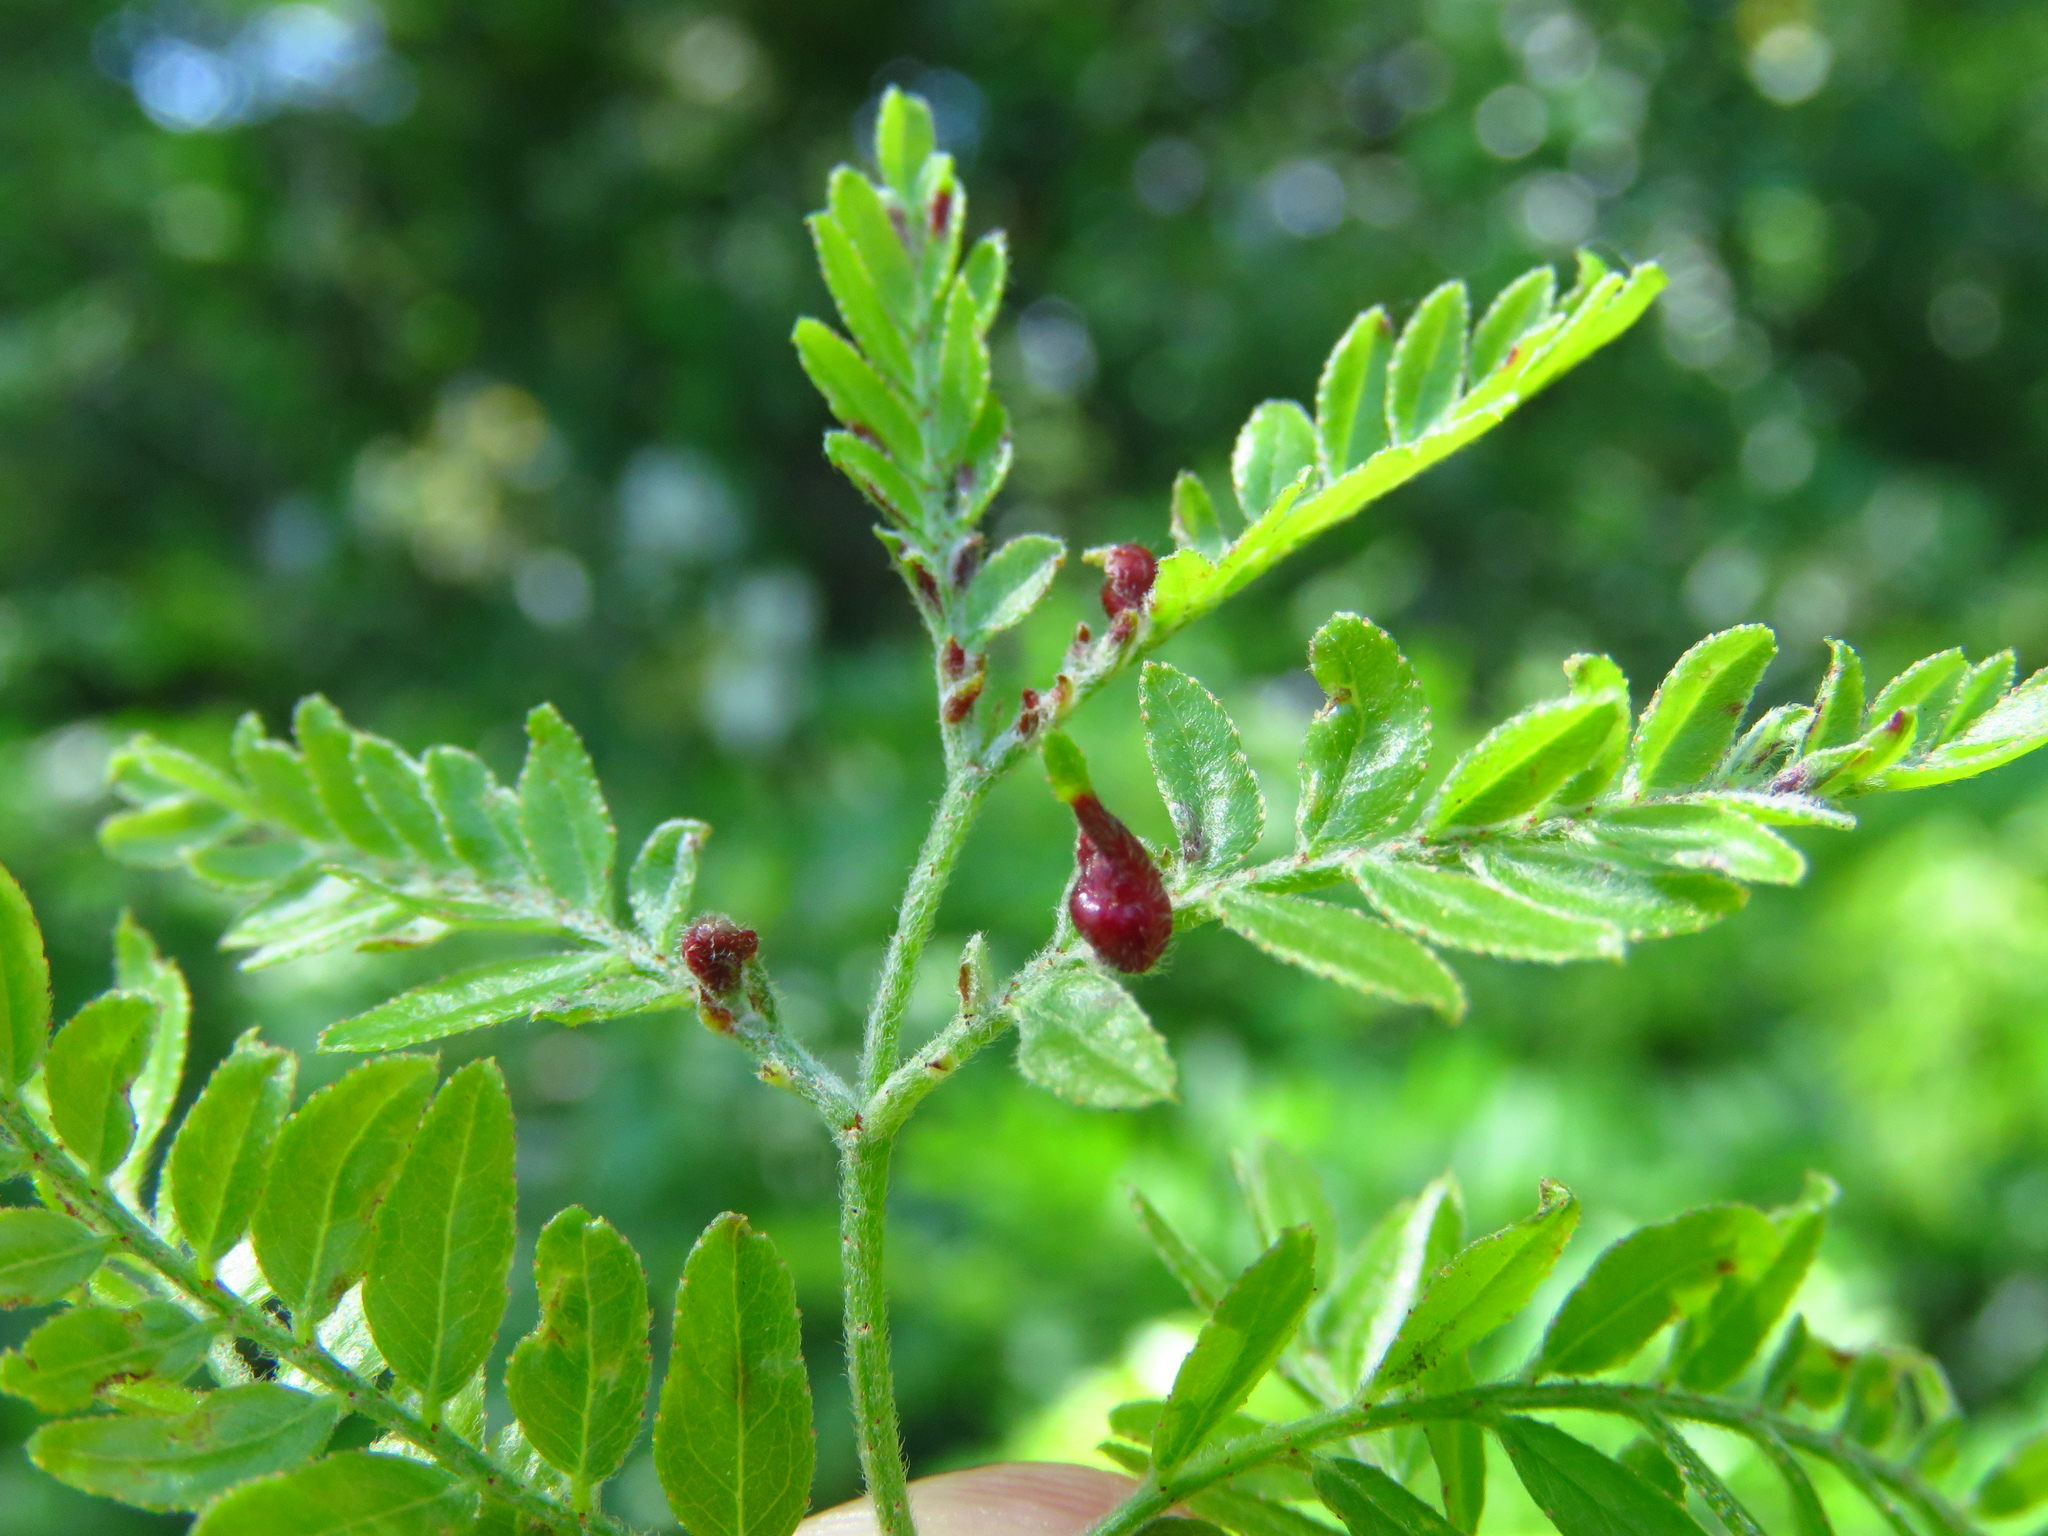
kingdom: Animalia
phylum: Arthropoda
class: Insecta
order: Diptera
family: Cecidomyiidae
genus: Dasineura
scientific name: Dasineura gleditchiae
